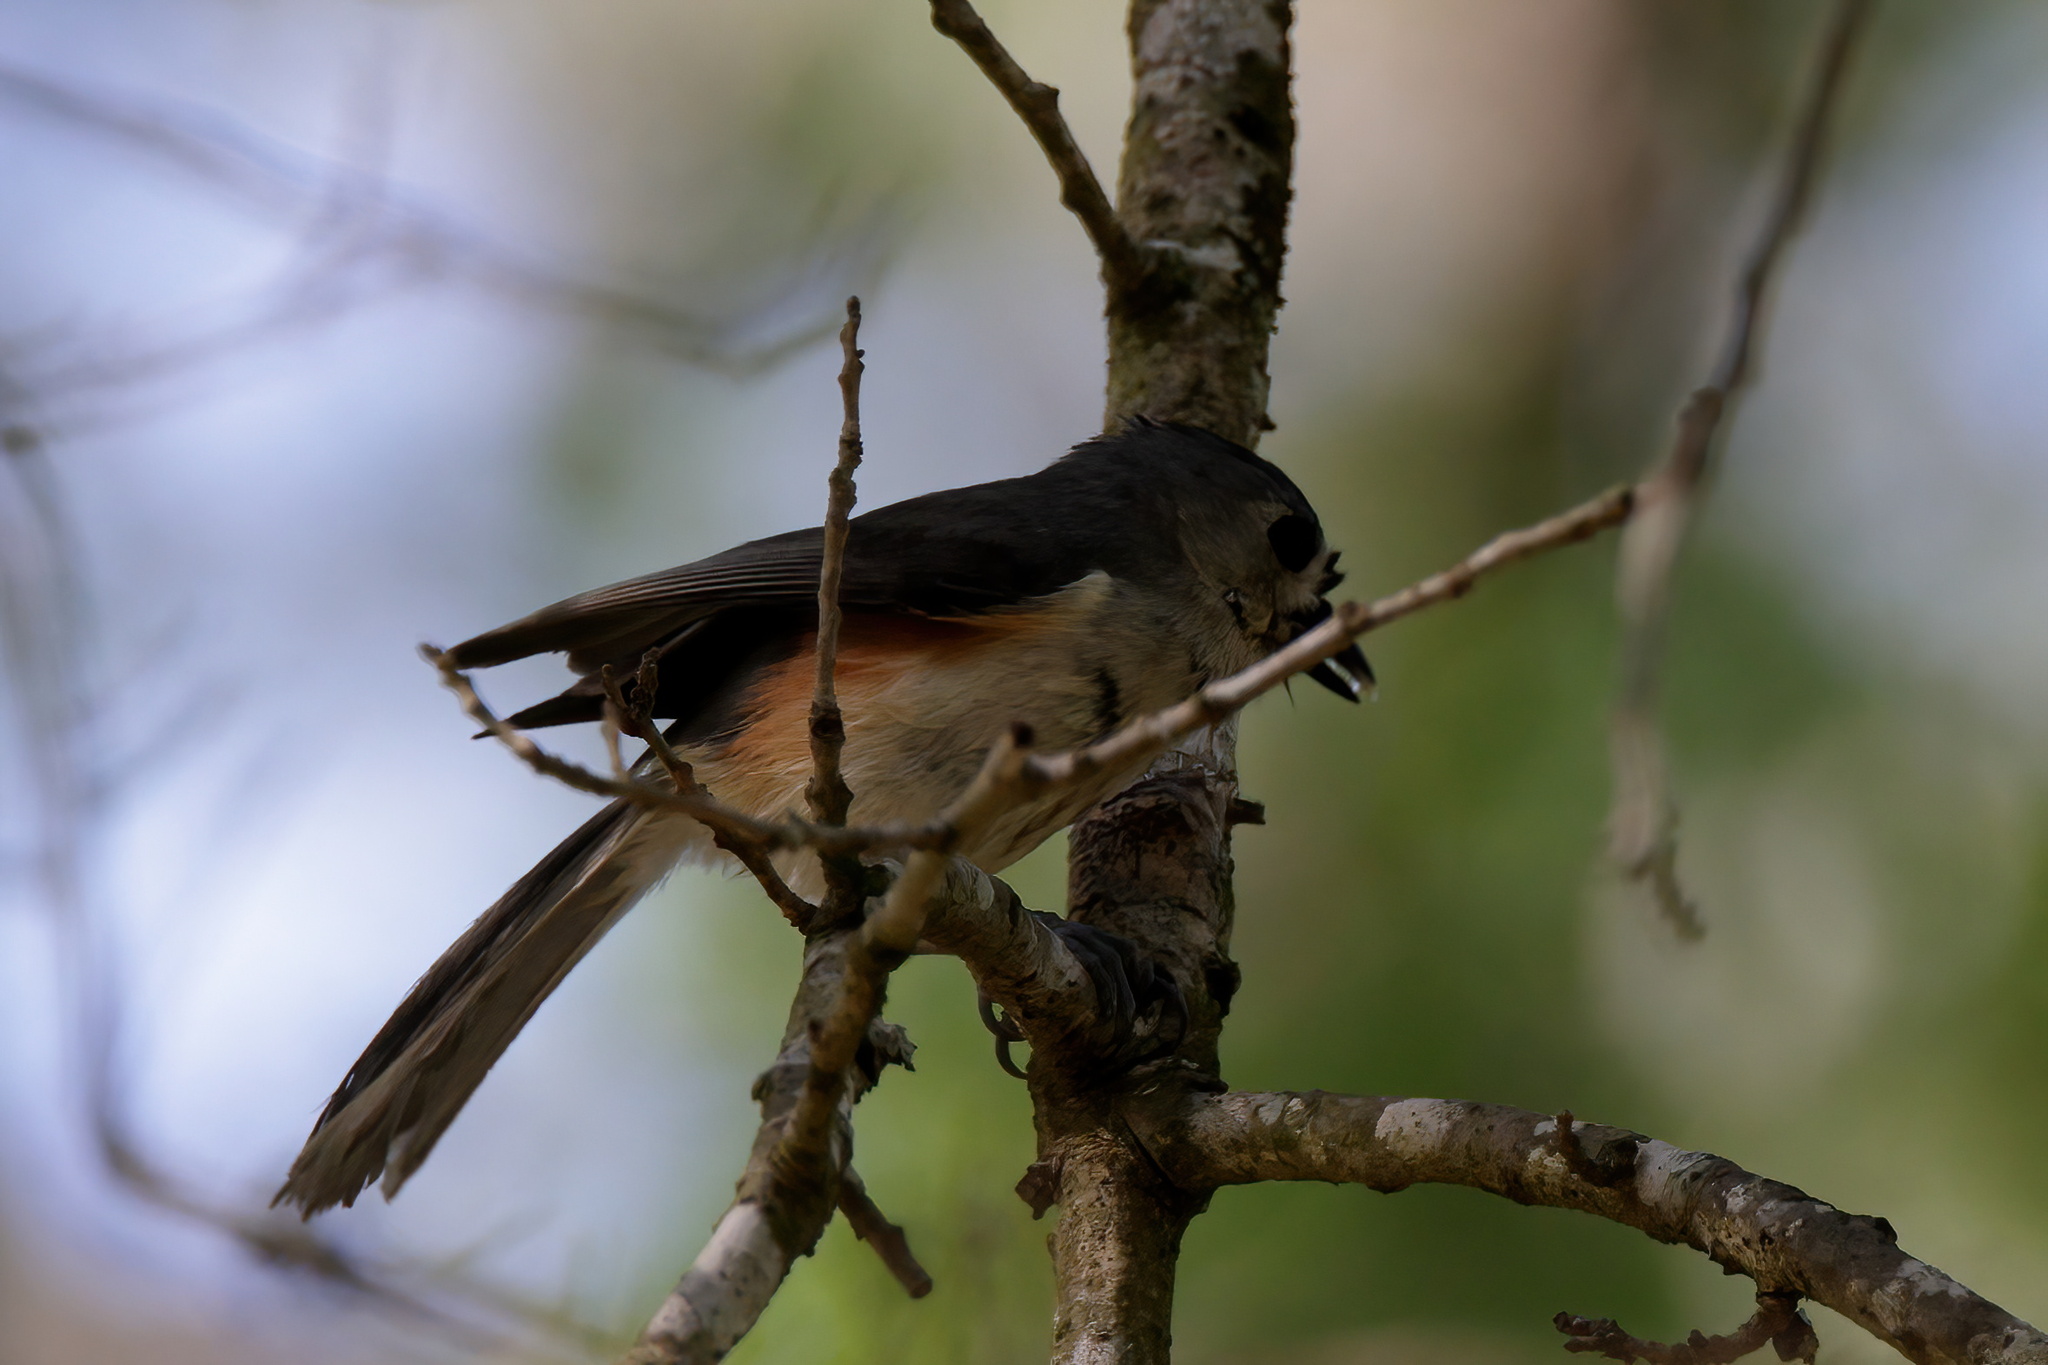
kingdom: Animalia
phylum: Chordata
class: Aves
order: Passeriformes
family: Paridae
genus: Baeolophus
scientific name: Baeolophus bicolor
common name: Tufted titmouse
